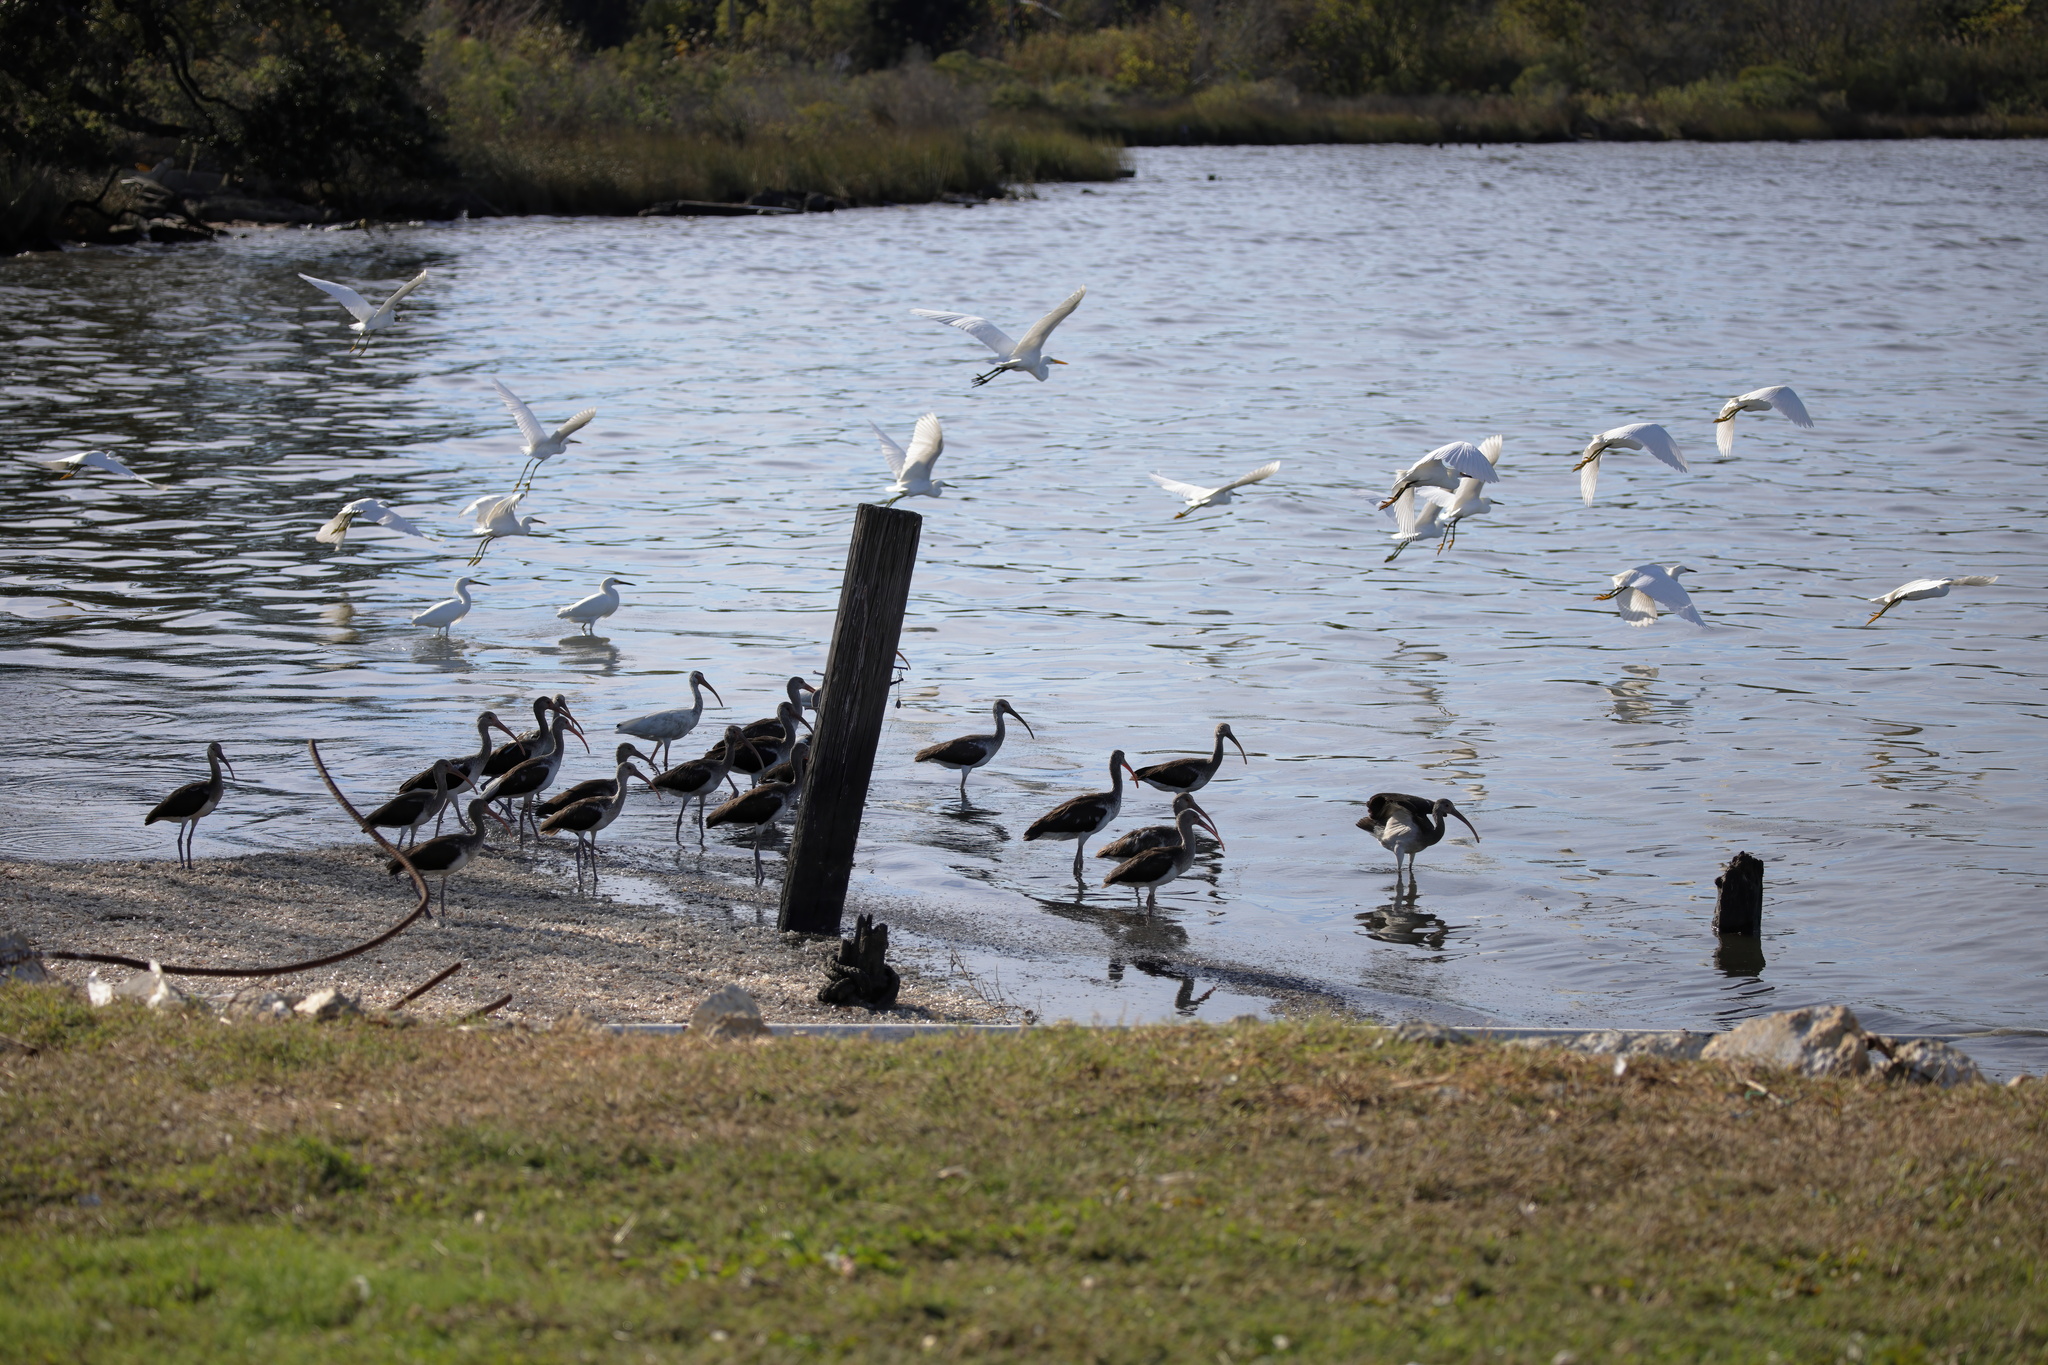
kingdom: Animalia
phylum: Chordata
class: Aves
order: Pelecaniformes
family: Threskiornithidae
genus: Eudocimus
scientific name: Eudocimus albus
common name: White ibis
